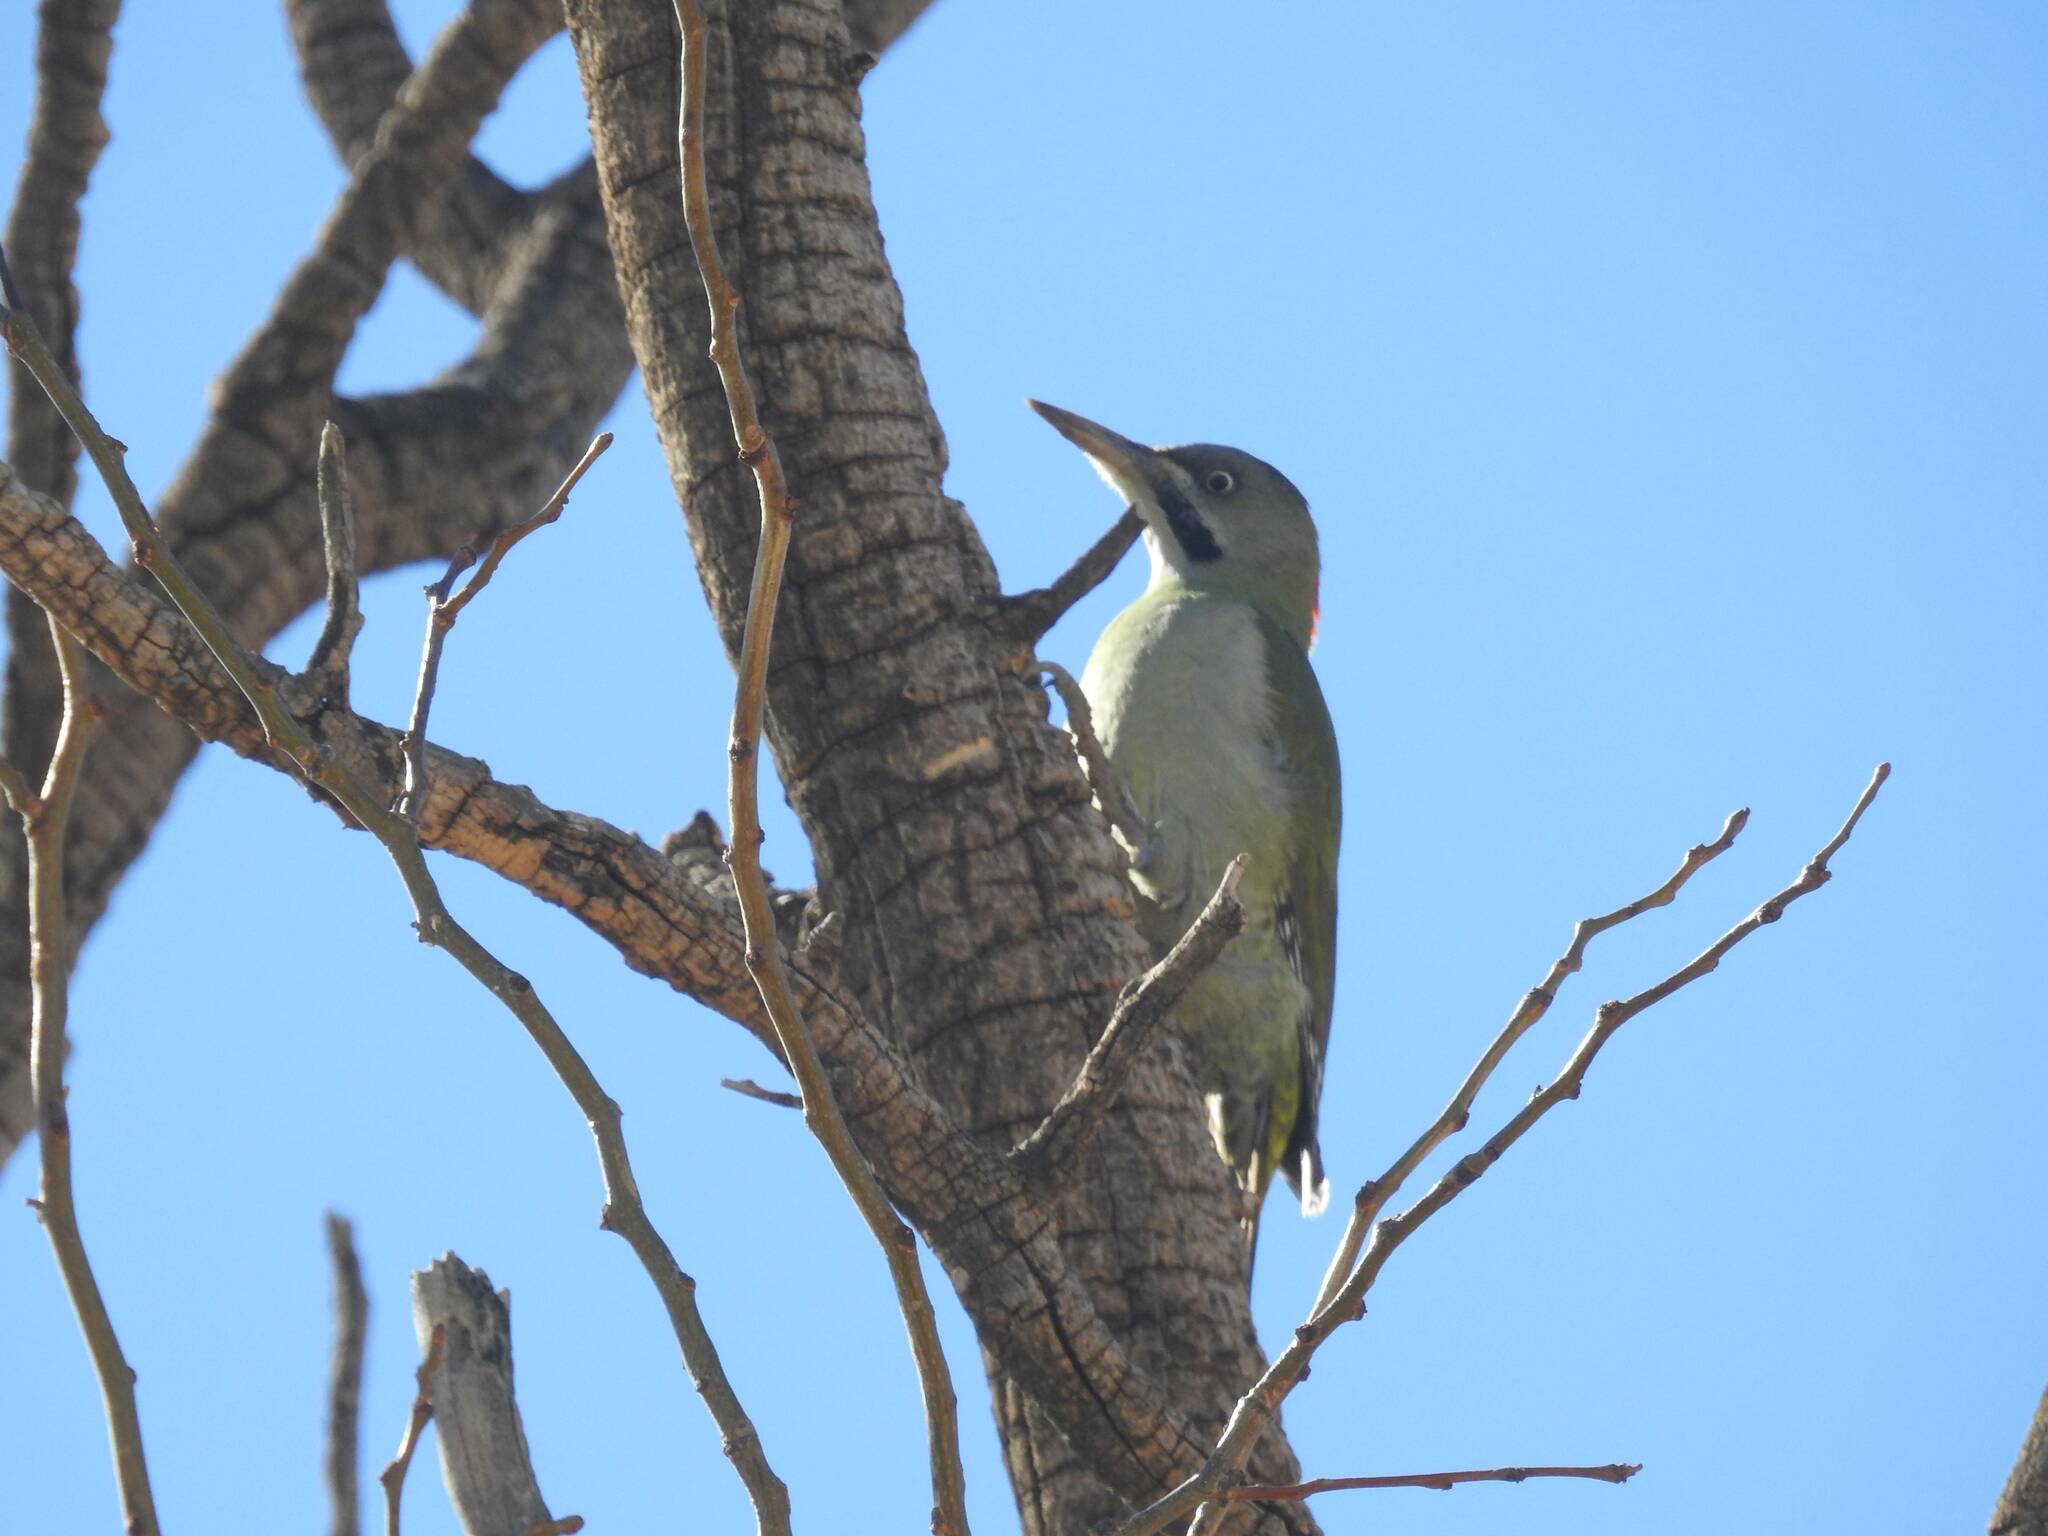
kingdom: Animalia
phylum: Chordata
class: Aves
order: Piciformes
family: Picidae
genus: Picus
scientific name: Picus vaillantii
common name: Levaillant's woodpecker
